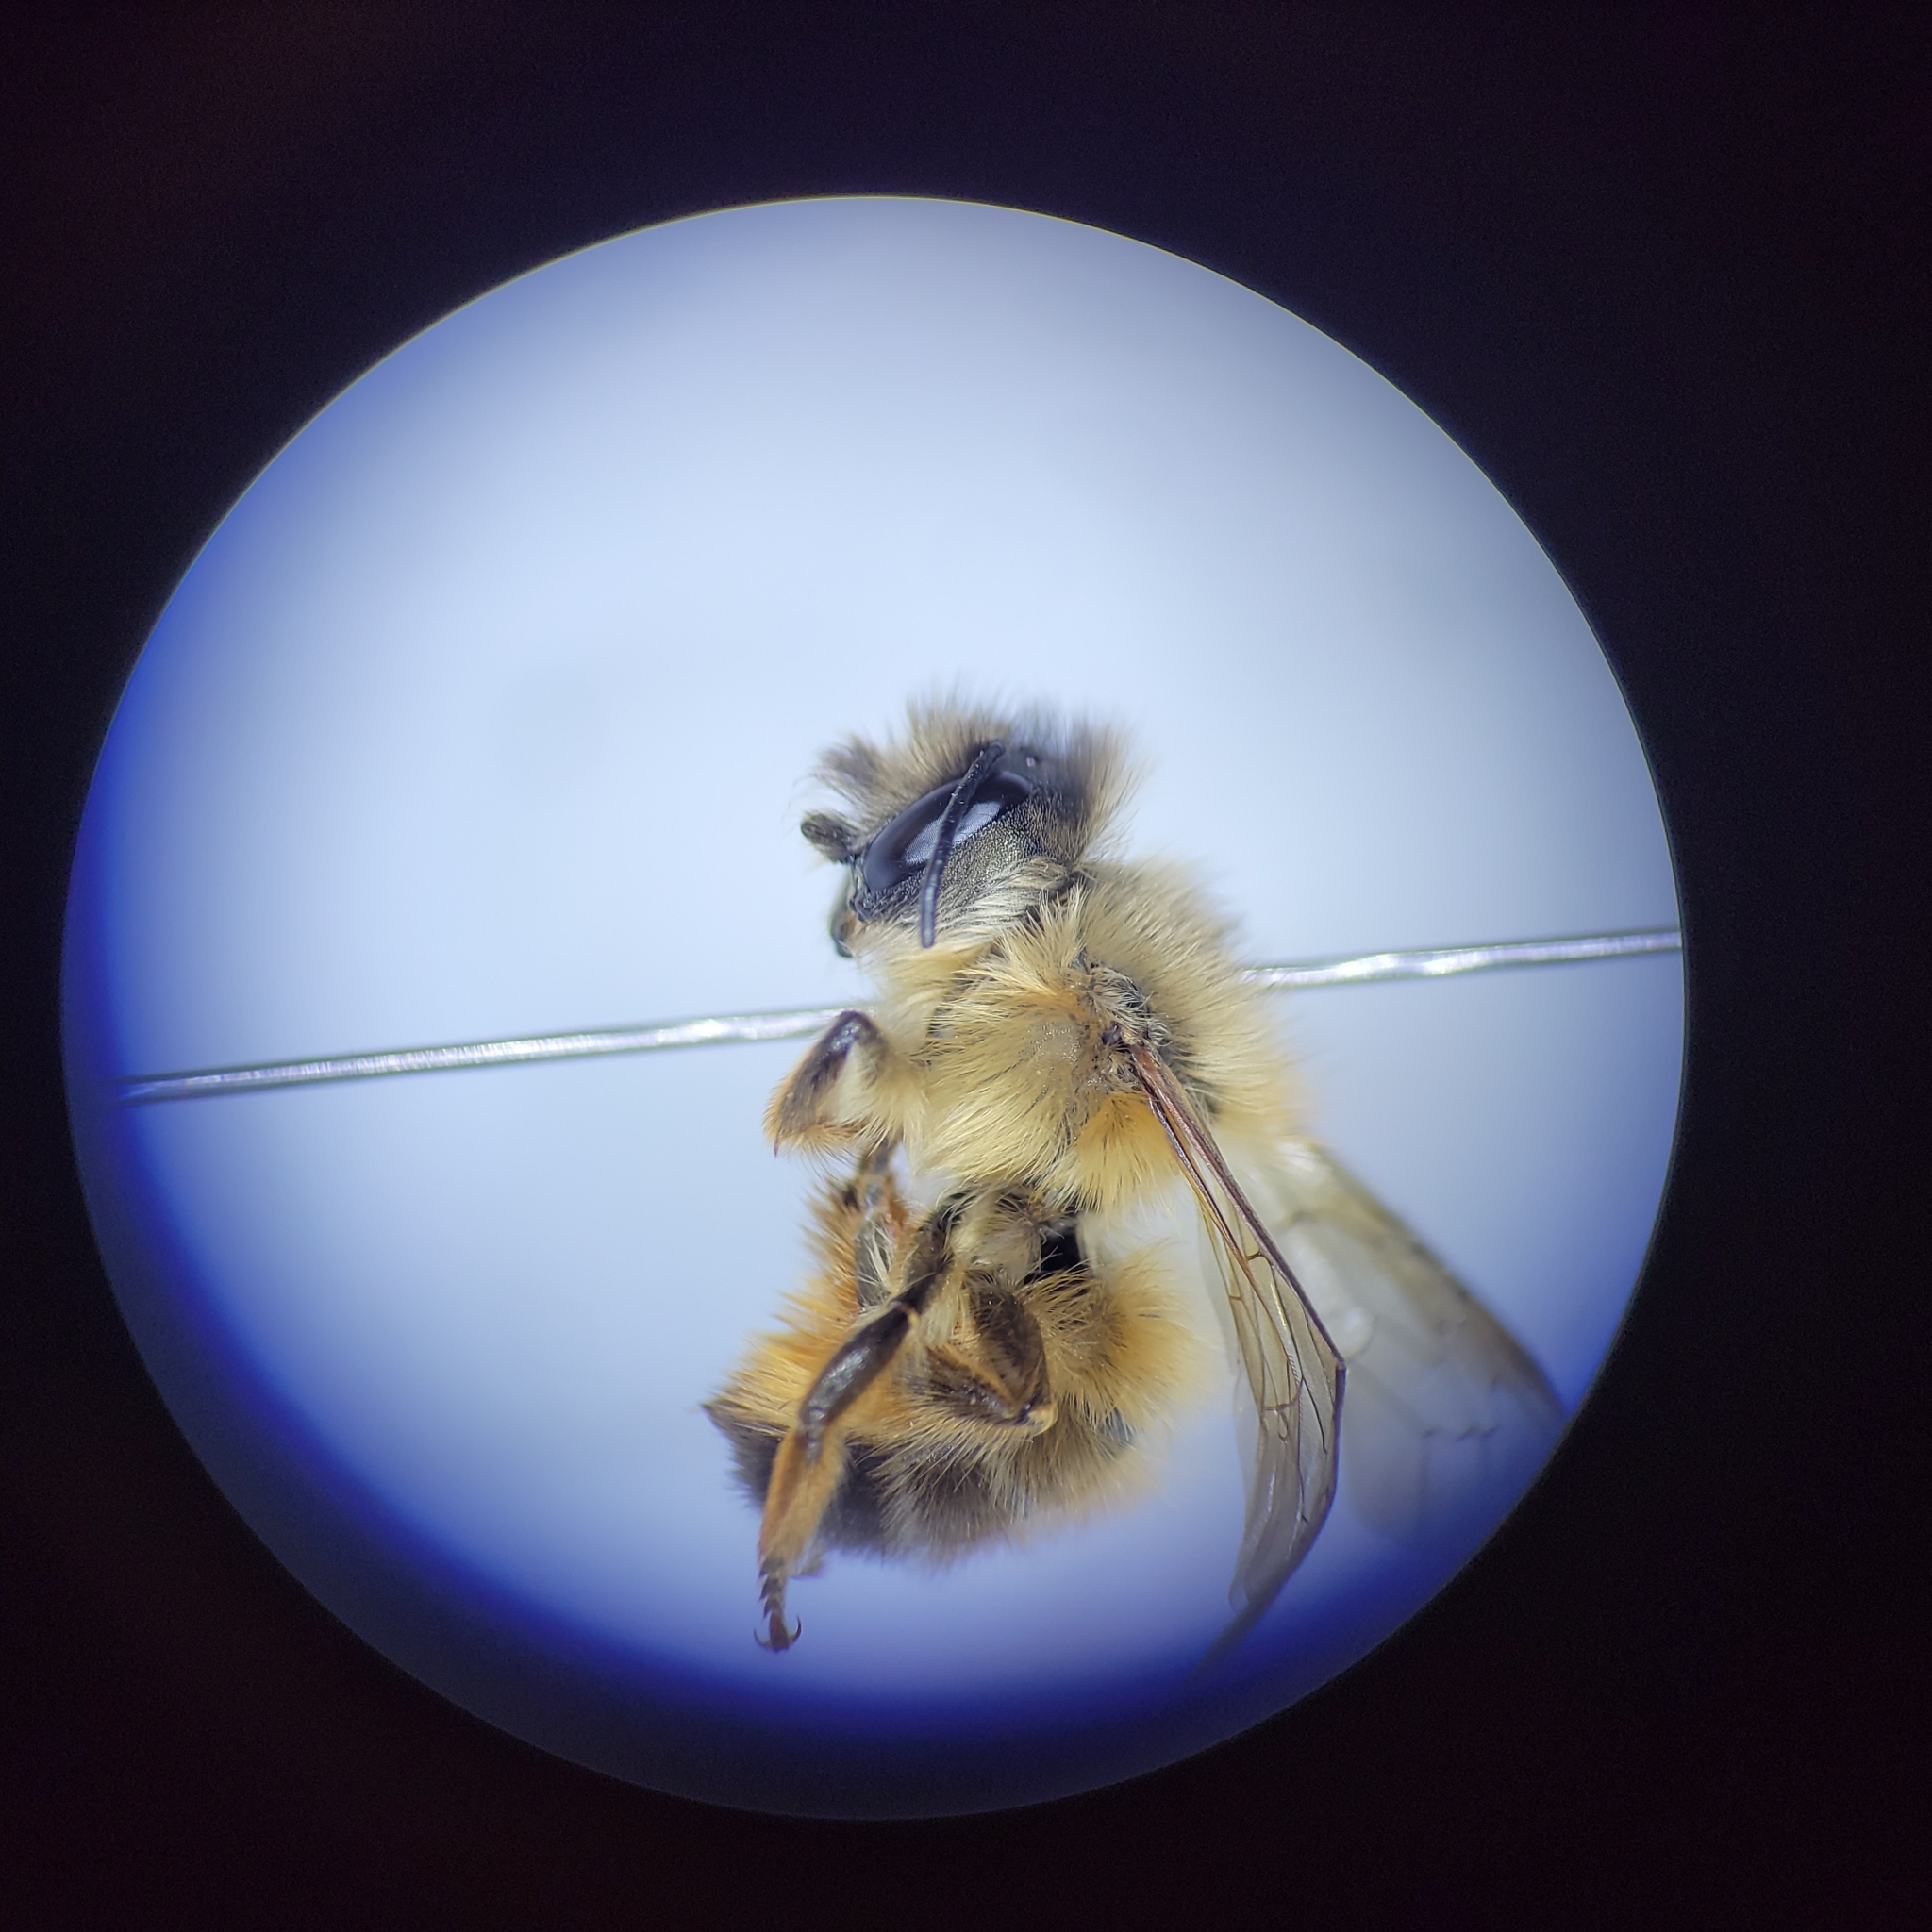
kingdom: Animalia
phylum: Arthropoda
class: Insecta
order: Hymenoptera
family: Megachilidae
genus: Osmia
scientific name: Osmia taurus
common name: Taurus mason bee
